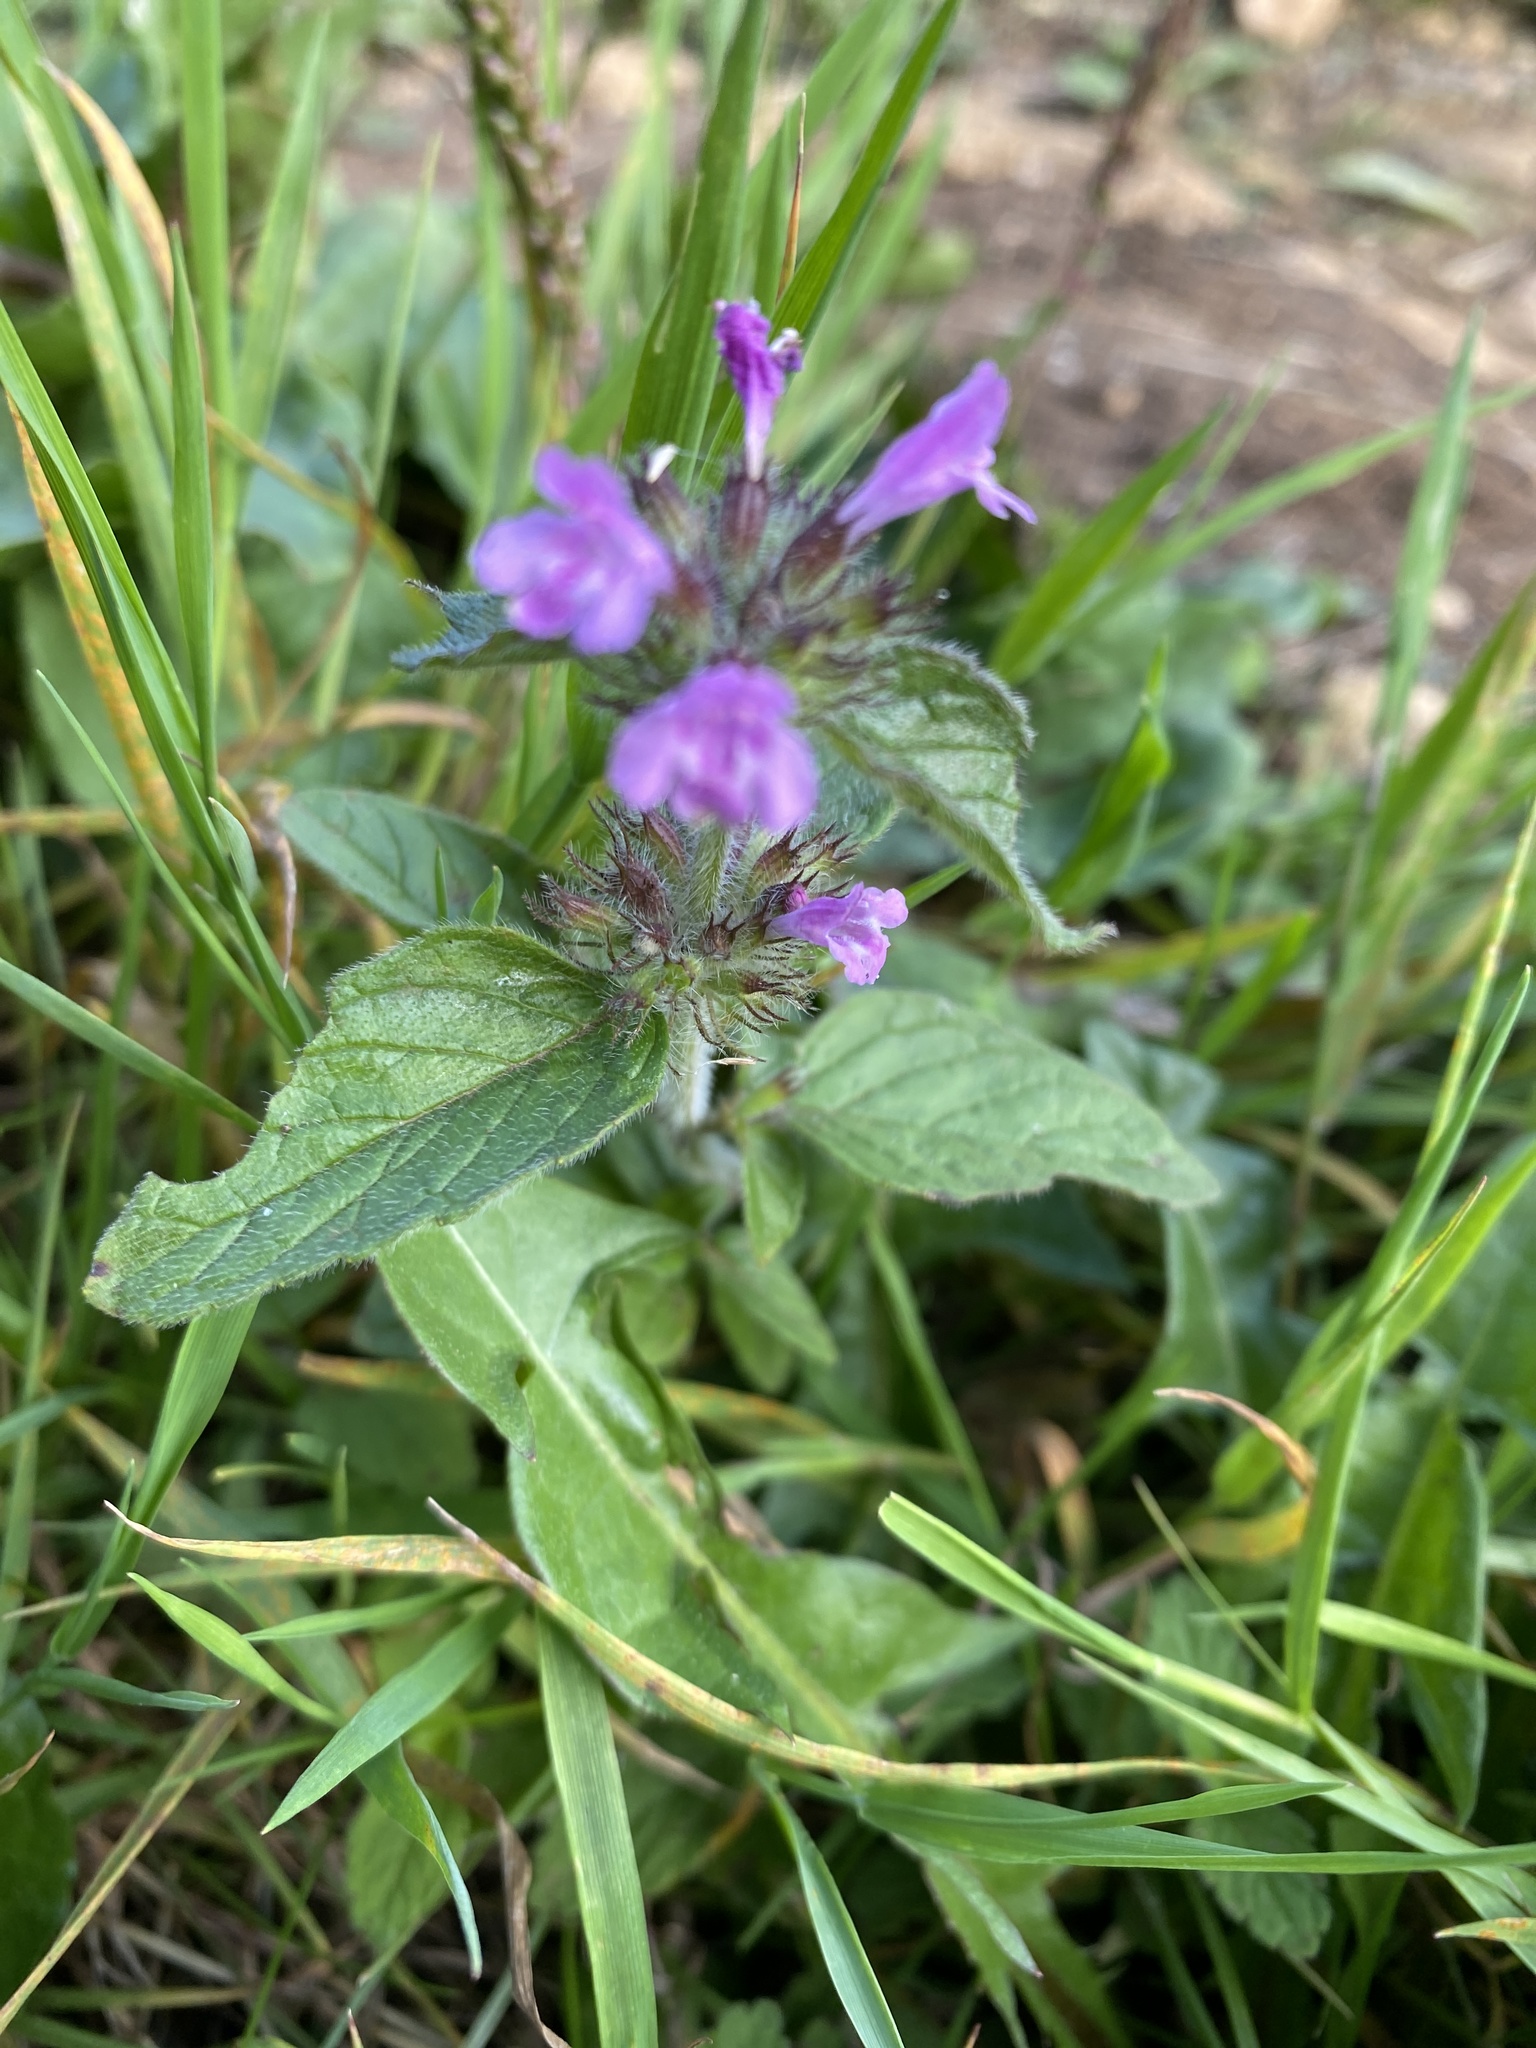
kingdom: Plantae
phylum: Tracheophyta
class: Magnoliopsida
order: Lamiales
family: Lamiaceae
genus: Clinopodium
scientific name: Clinopodium vulgare
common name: Wild basil
